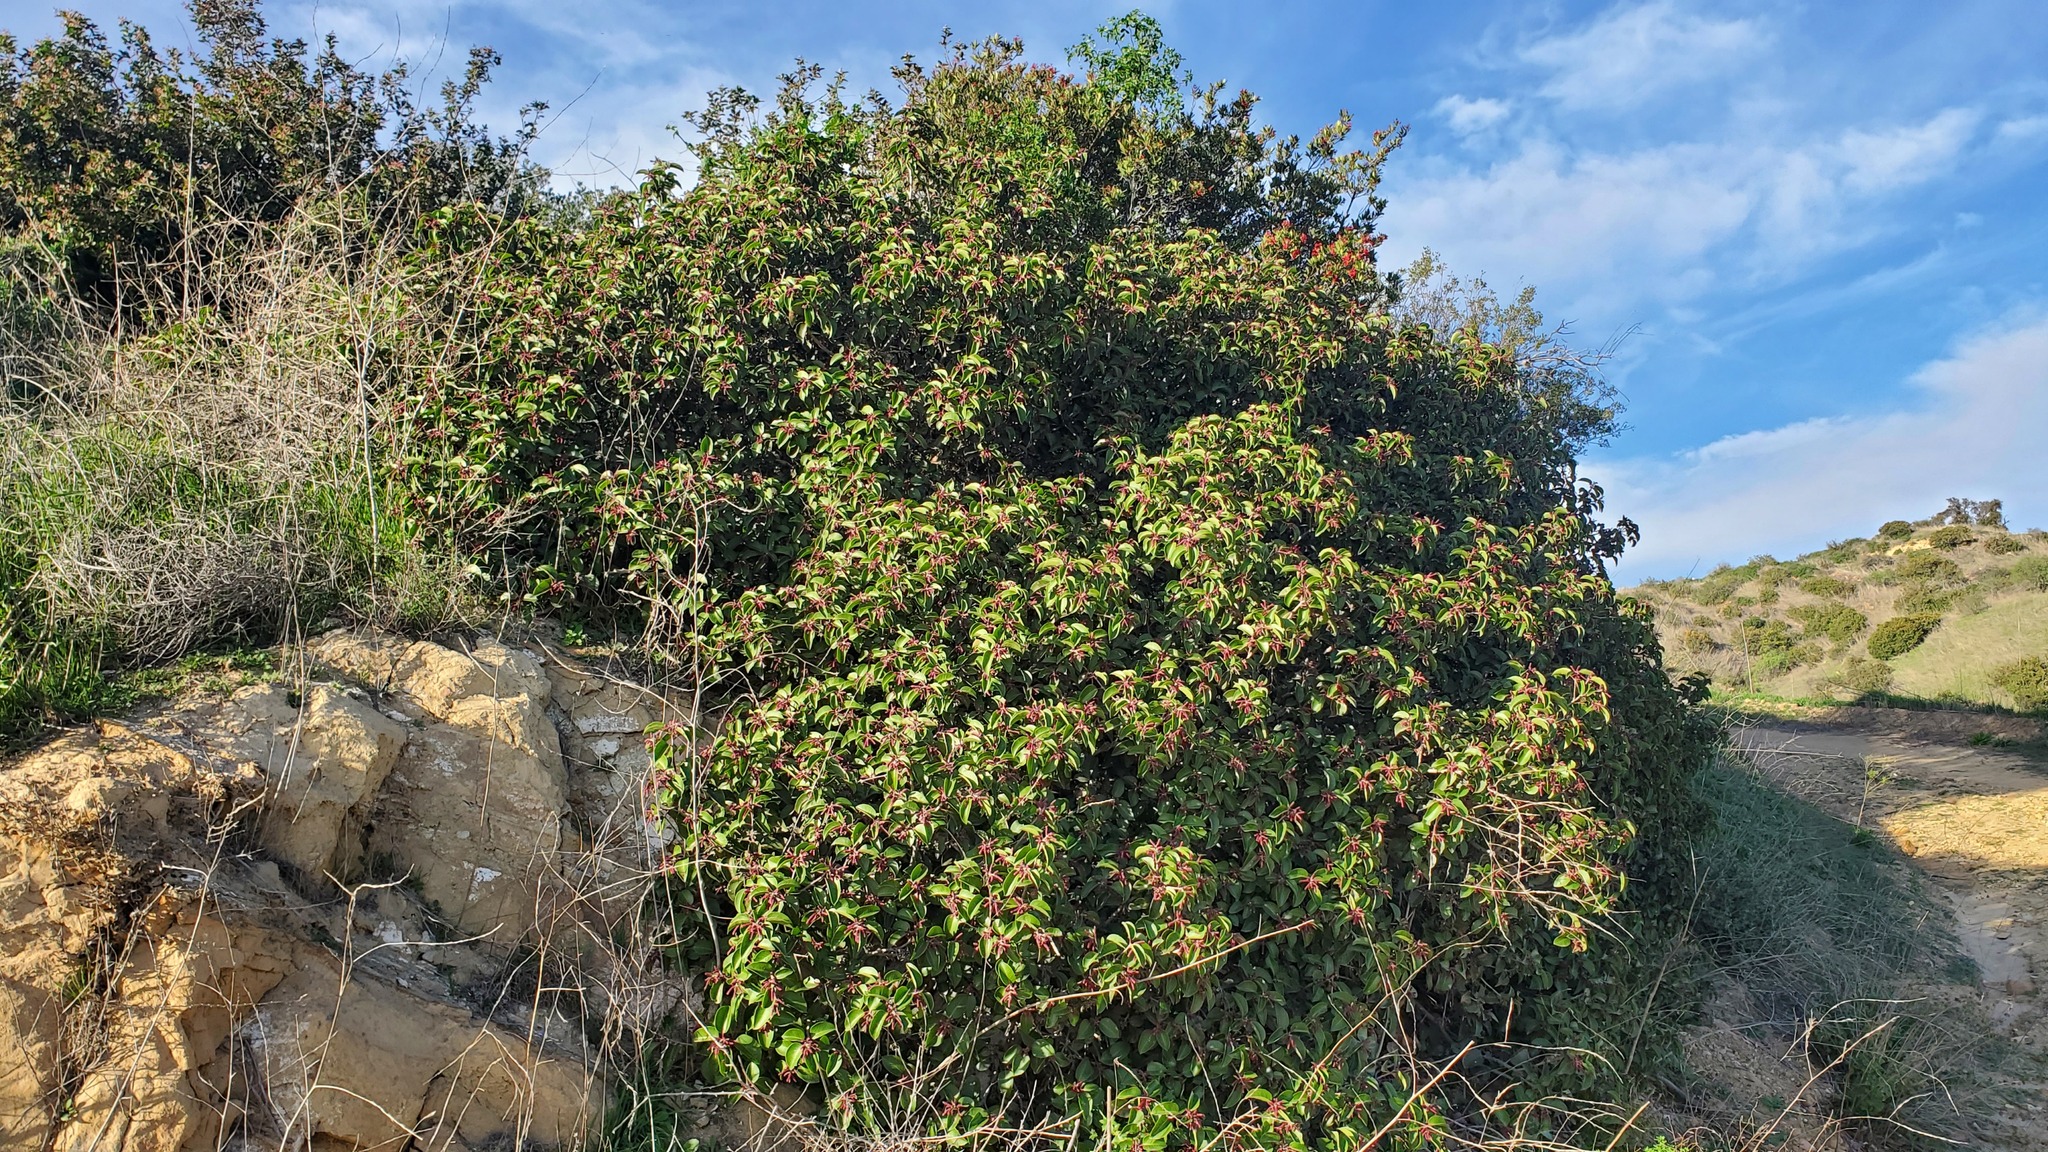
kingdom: Plantae
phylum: Tracheophyta
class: Magnoliopsida
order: Sapindales
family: Anacardiaceae
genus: Rhus
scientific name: Rhus ovata
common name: Sugar sumac
